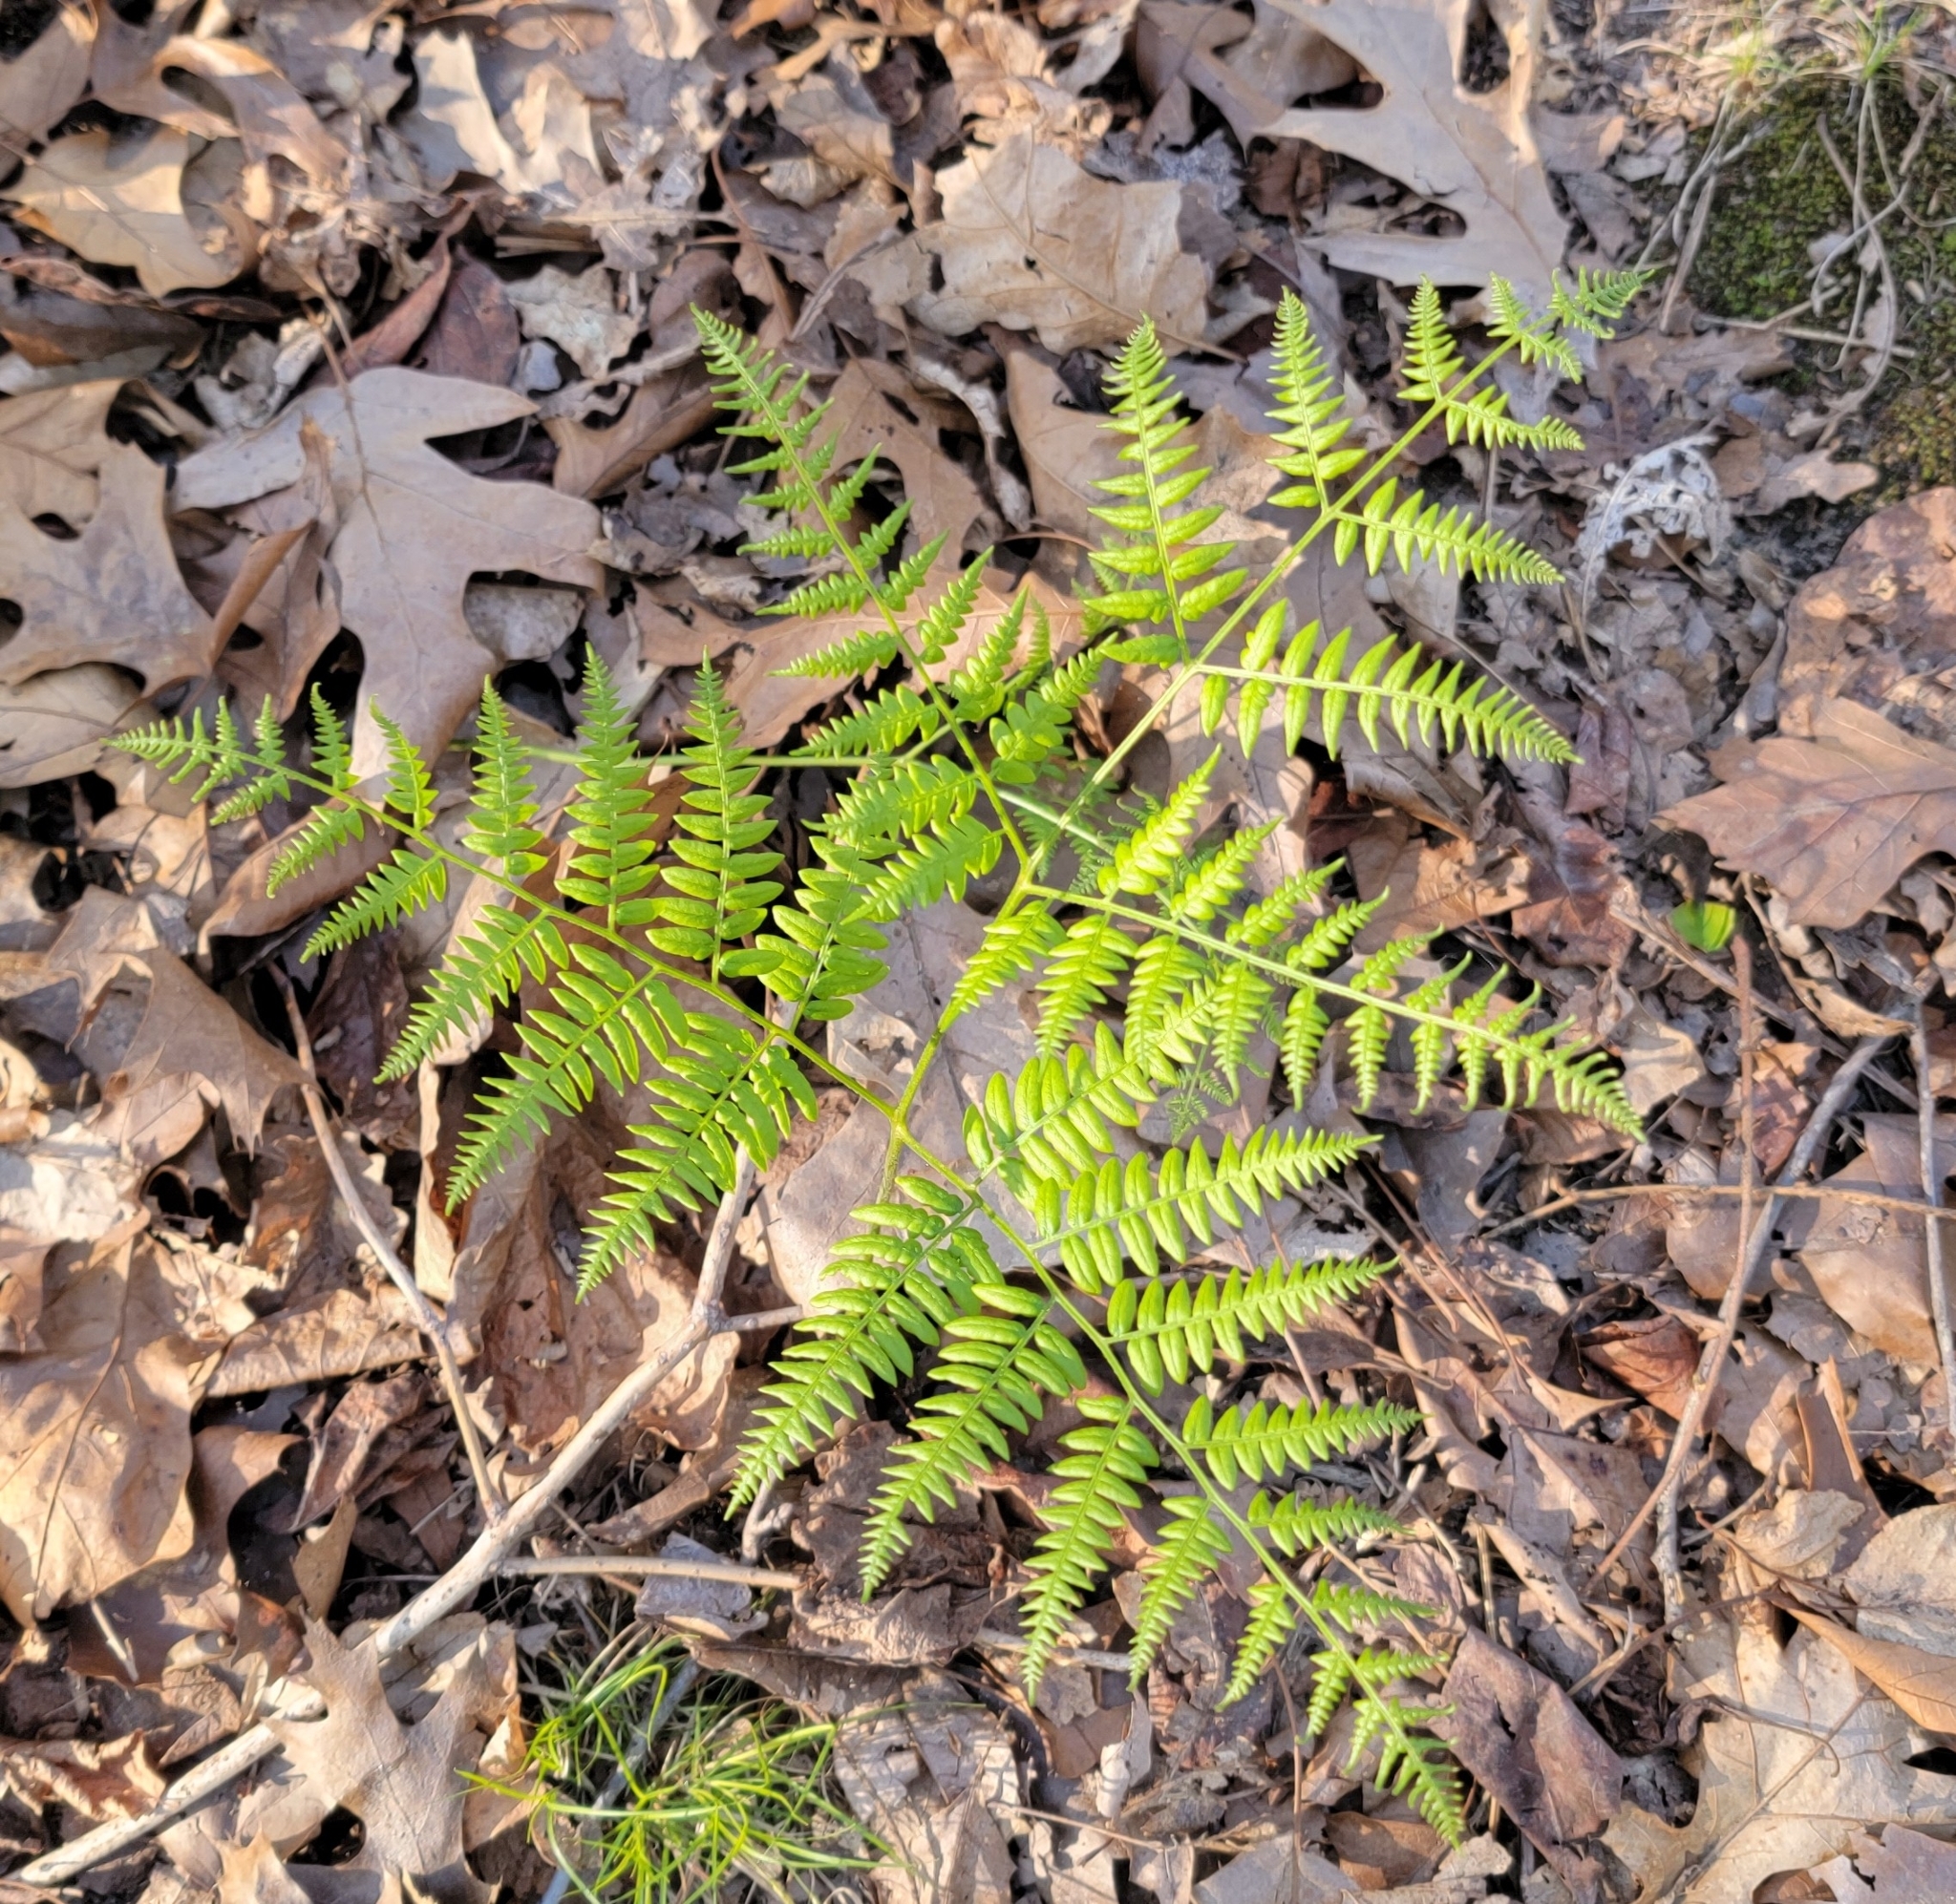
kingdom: Plantae
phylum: Tracheophyta
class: Polypodiopsida
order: Polypodiales
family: Dennstaedtiaceae
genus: Pteridium
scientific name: Pteridium aquilinum
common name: Bracken
